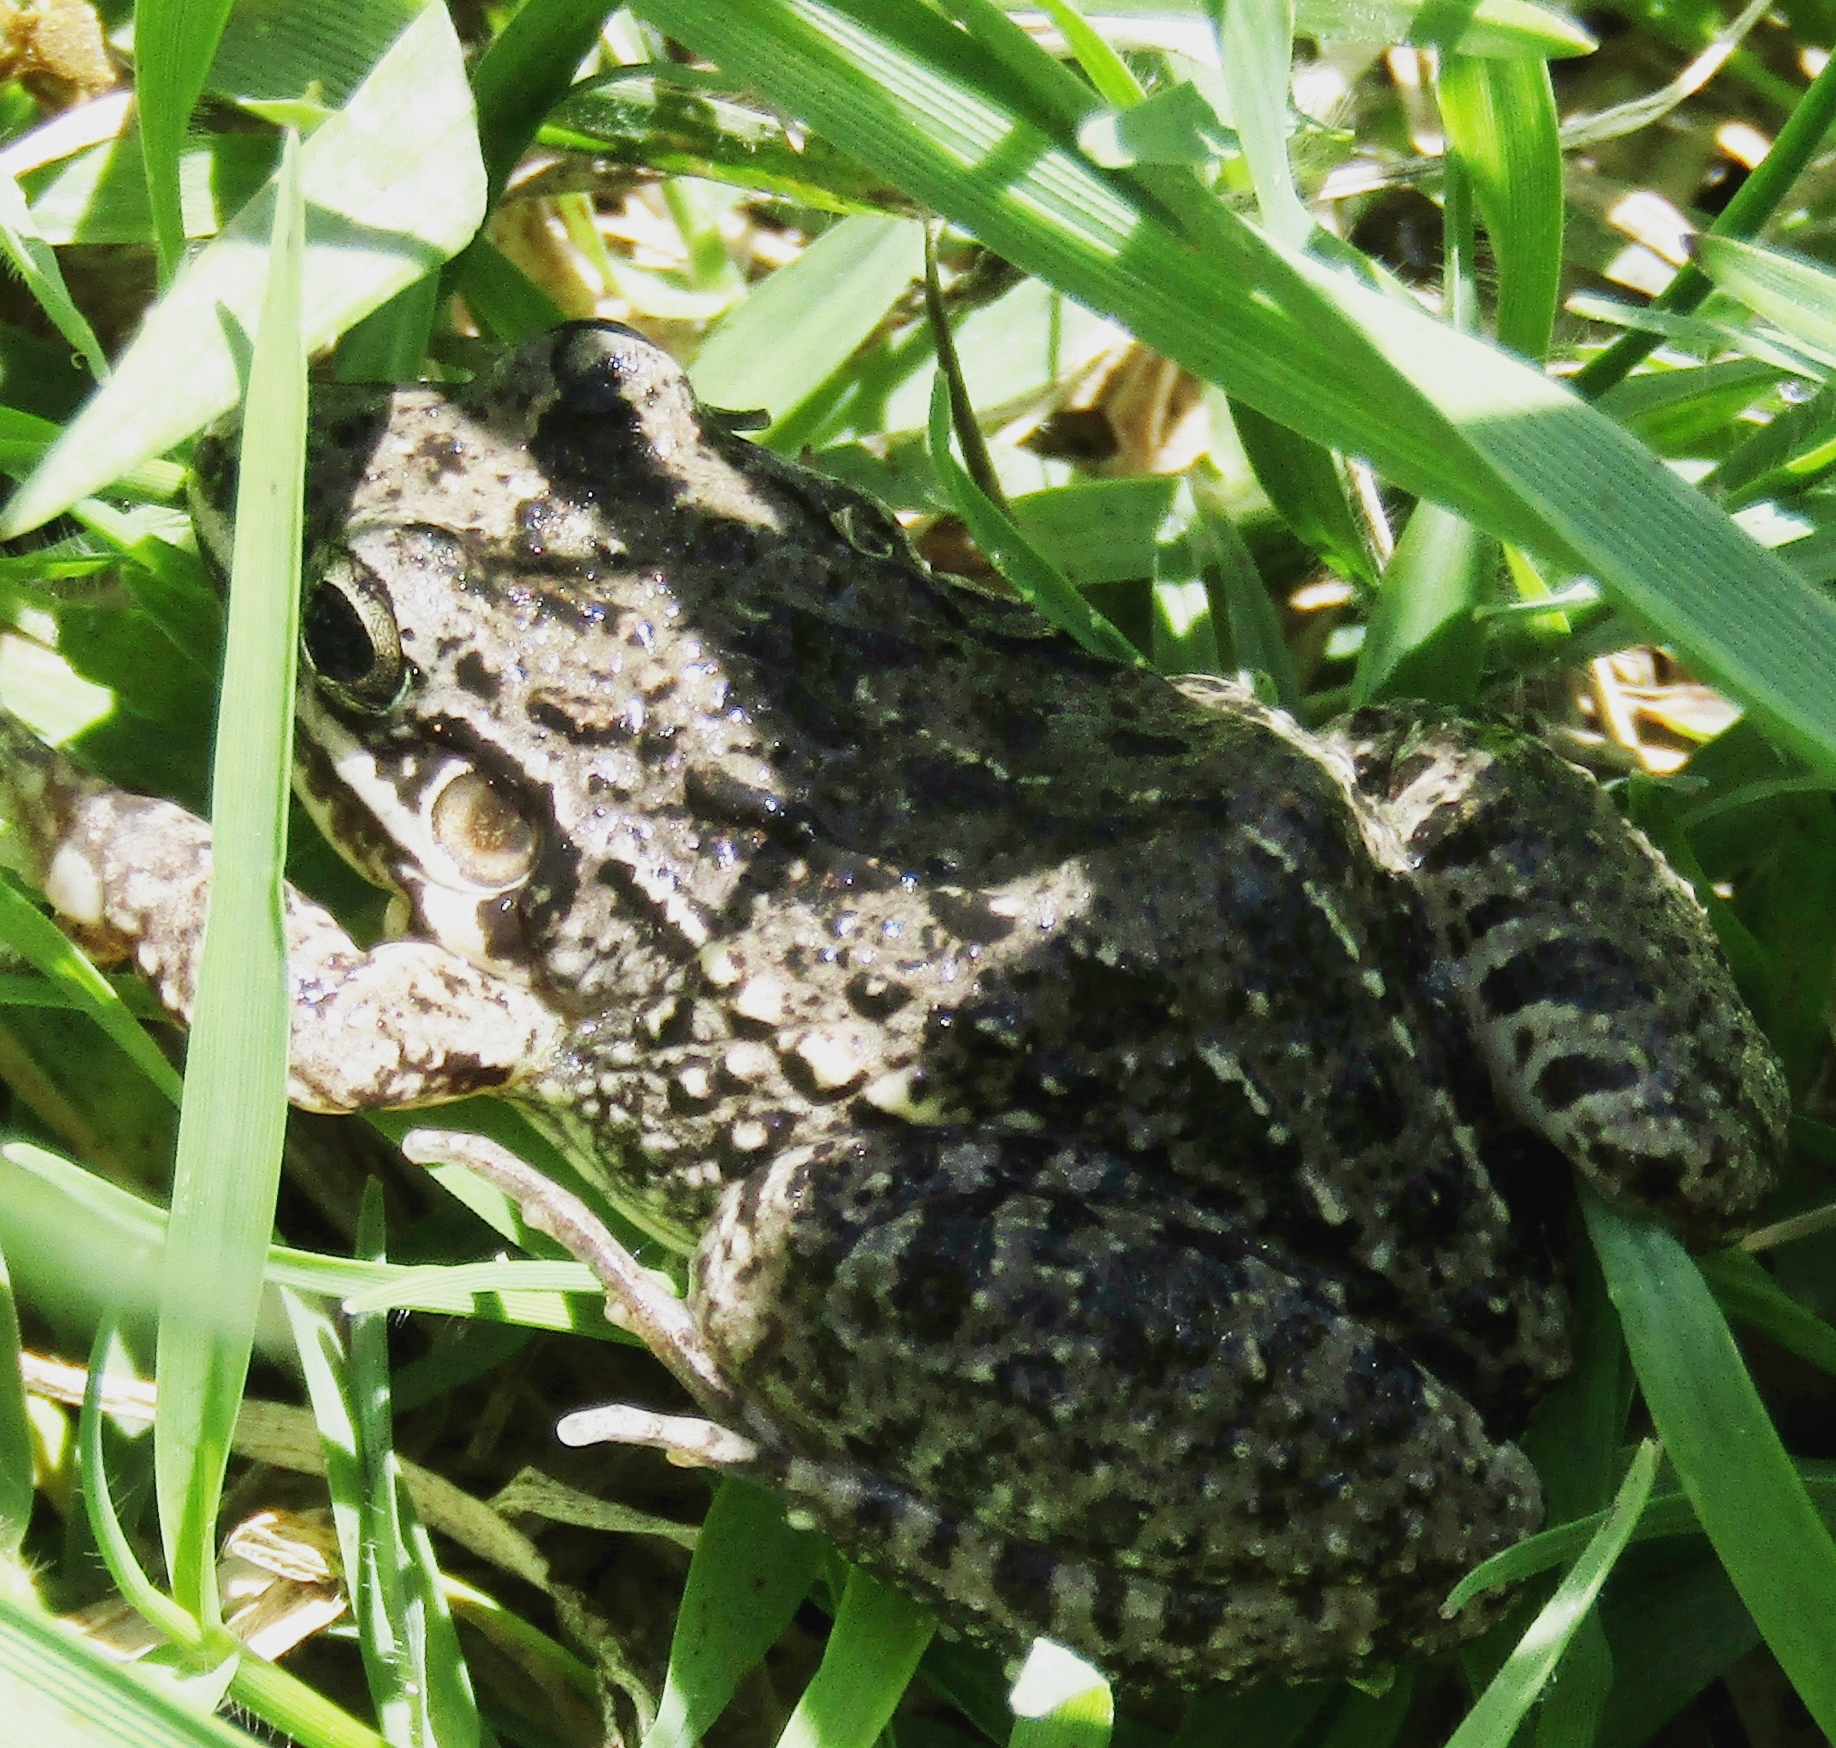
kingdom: Animalia
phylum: Chordata
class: Amphibia
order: Anura
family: Leptodactylidae
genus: Leptodactylus
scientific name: Leptodactylus latinasus
